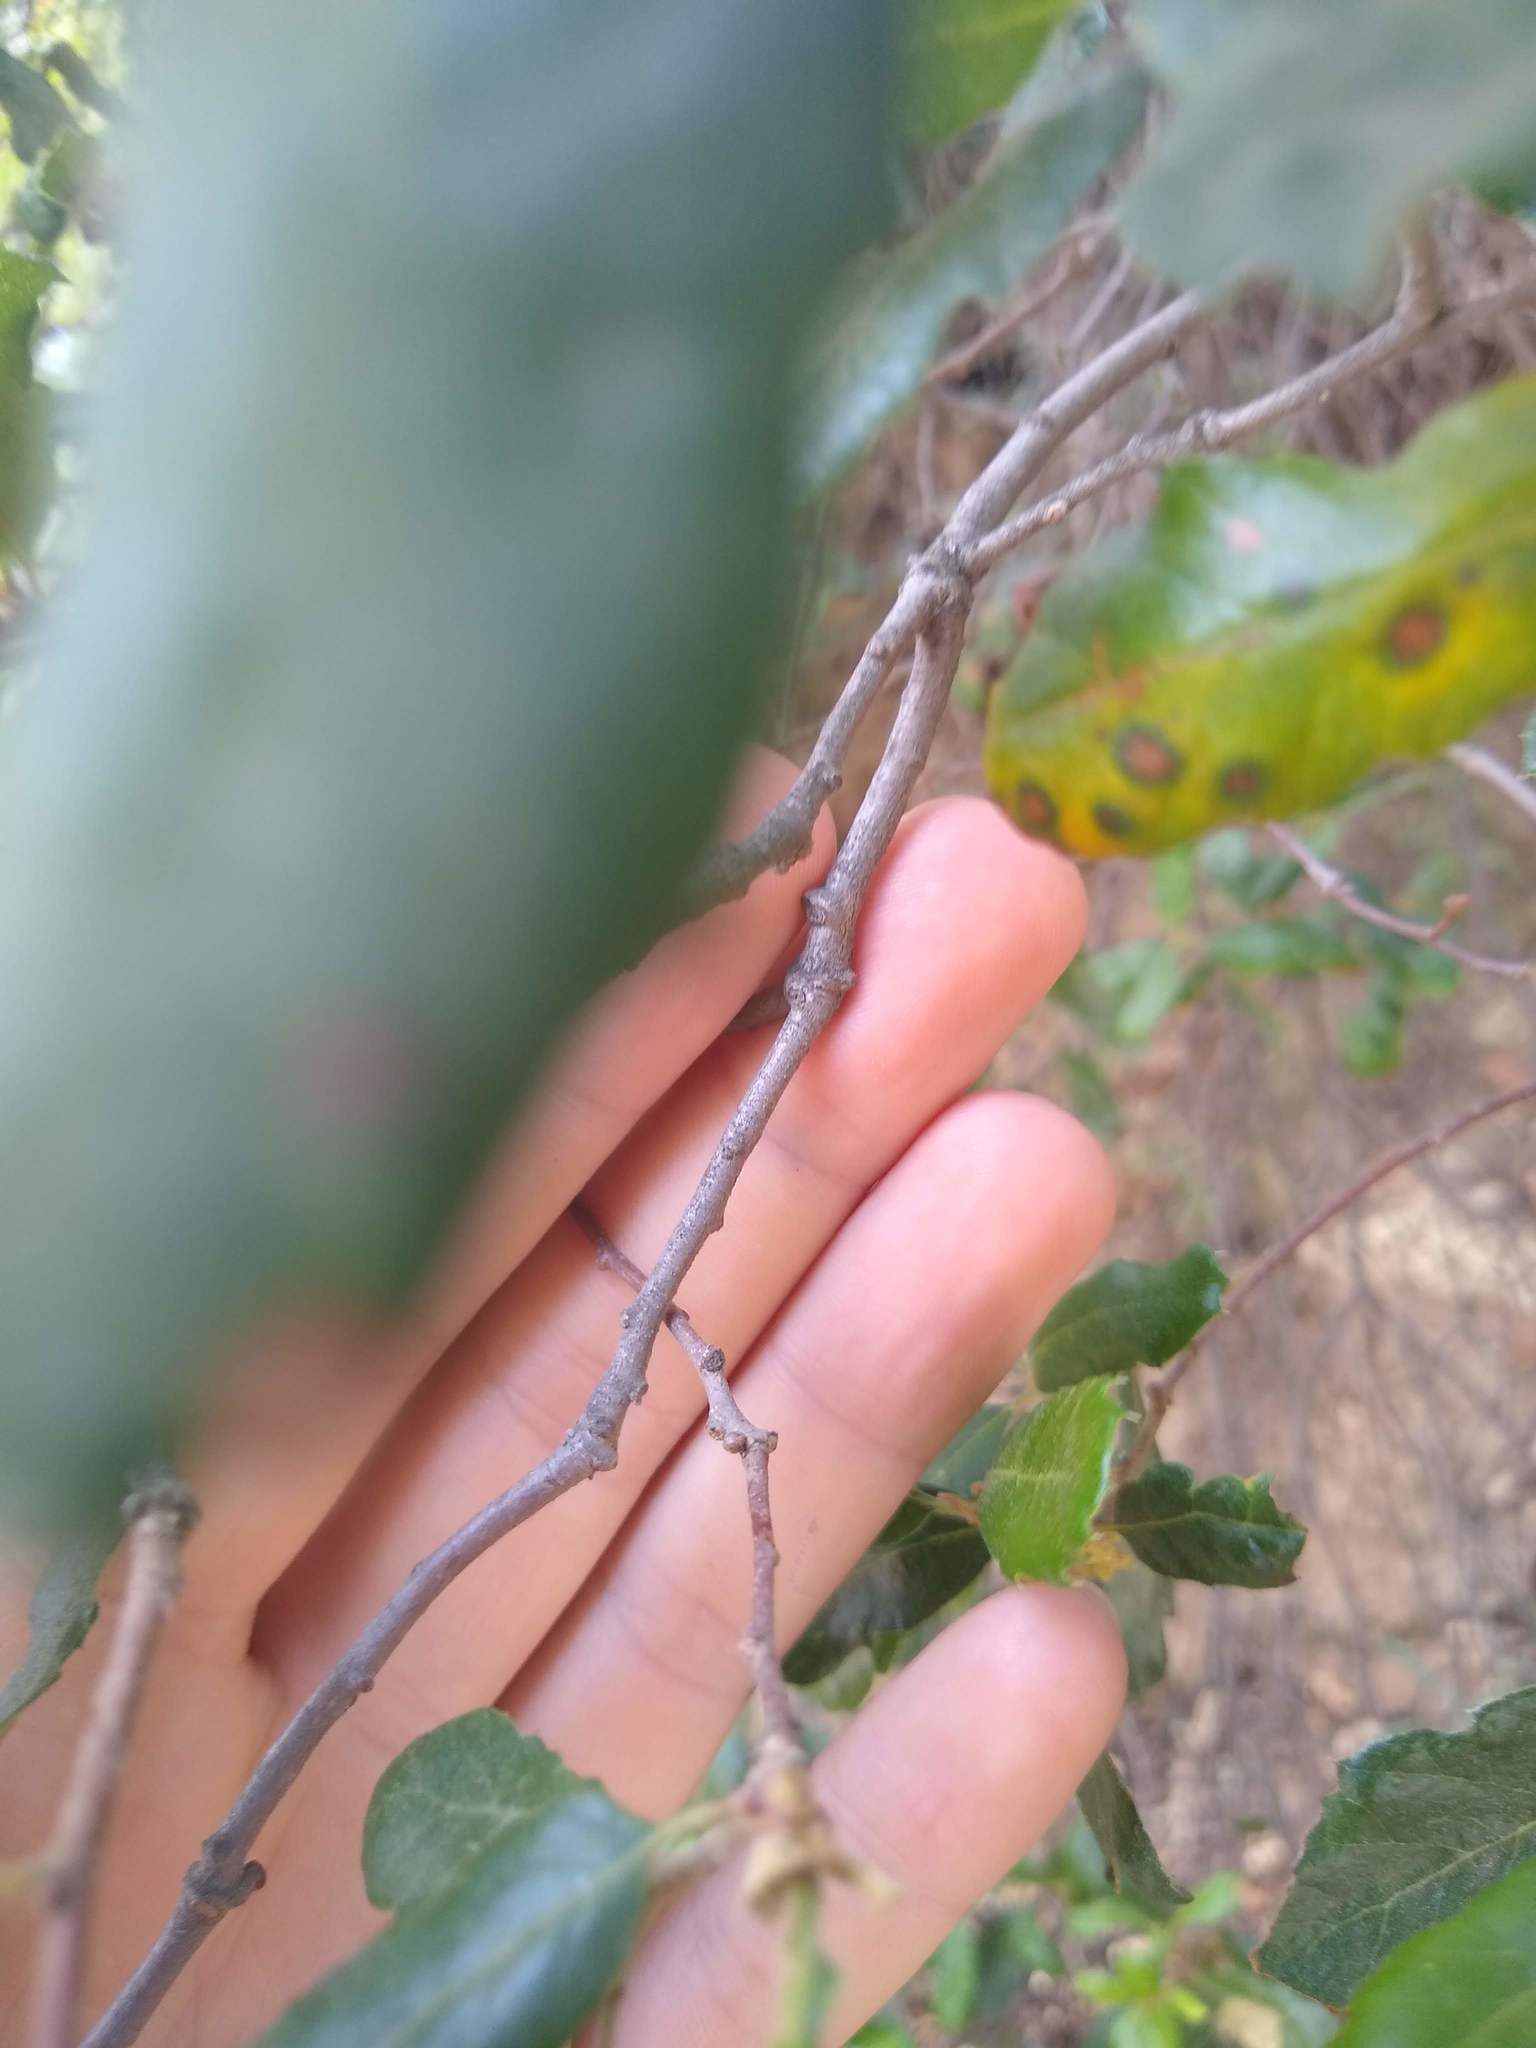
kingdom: Plantae
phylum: Tracheophyta
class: Magnoliopsida
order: Fagales
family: Fagaceae
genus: Quercus
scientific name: Quercus engelmannii
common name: Engelmann oak
